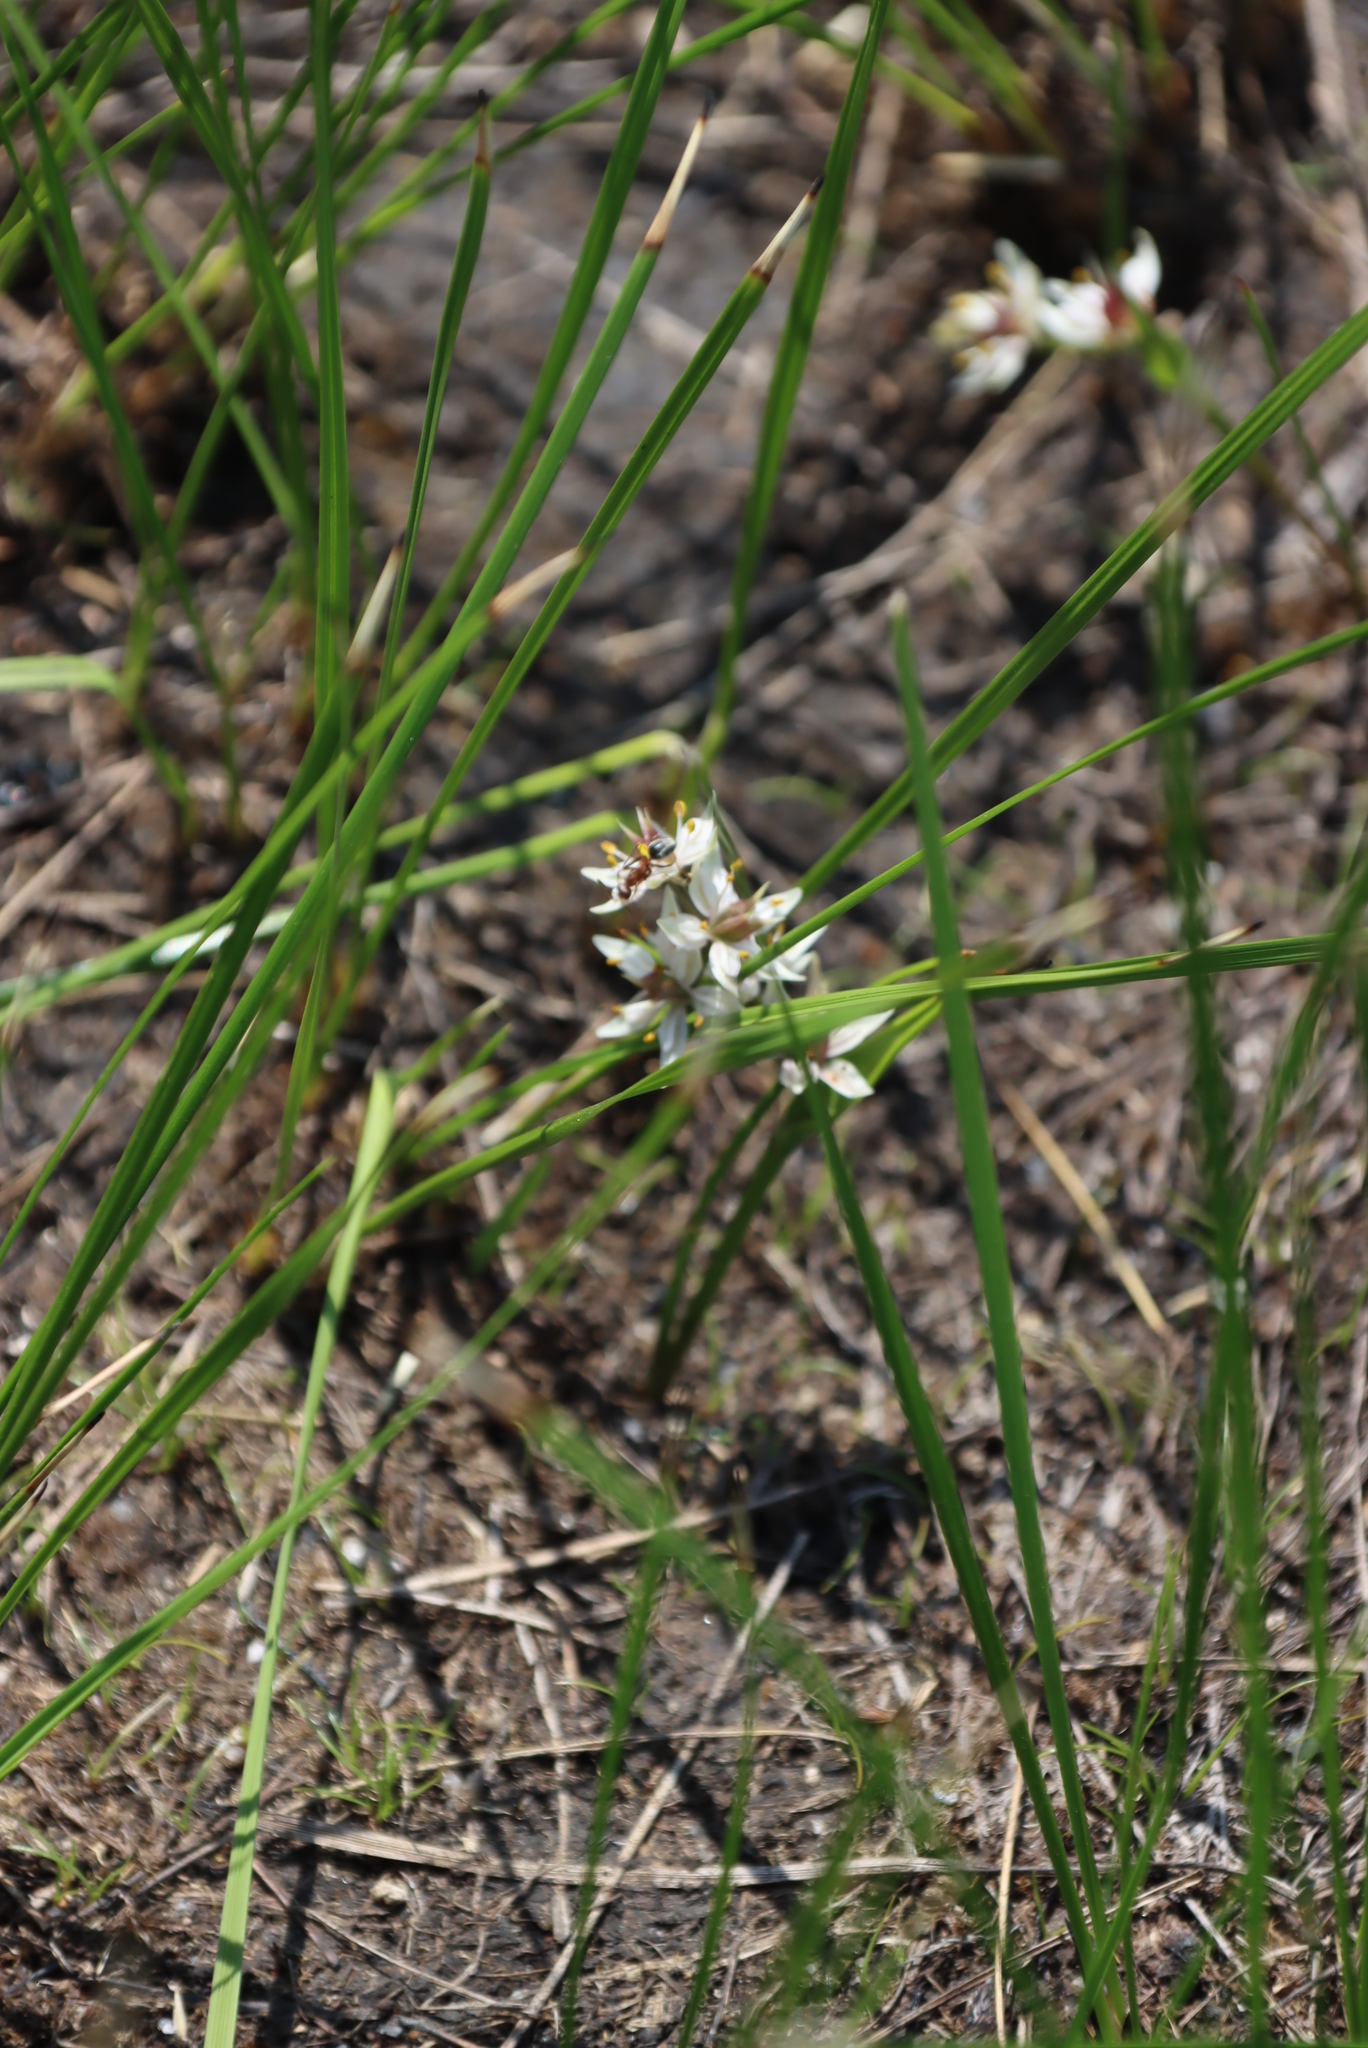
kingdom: Plantae
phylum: Tracheophyta
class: Liliopsida
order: Liliales
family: Colchicaceae
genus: Wurmbea
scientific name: Wurmbea kraussii
